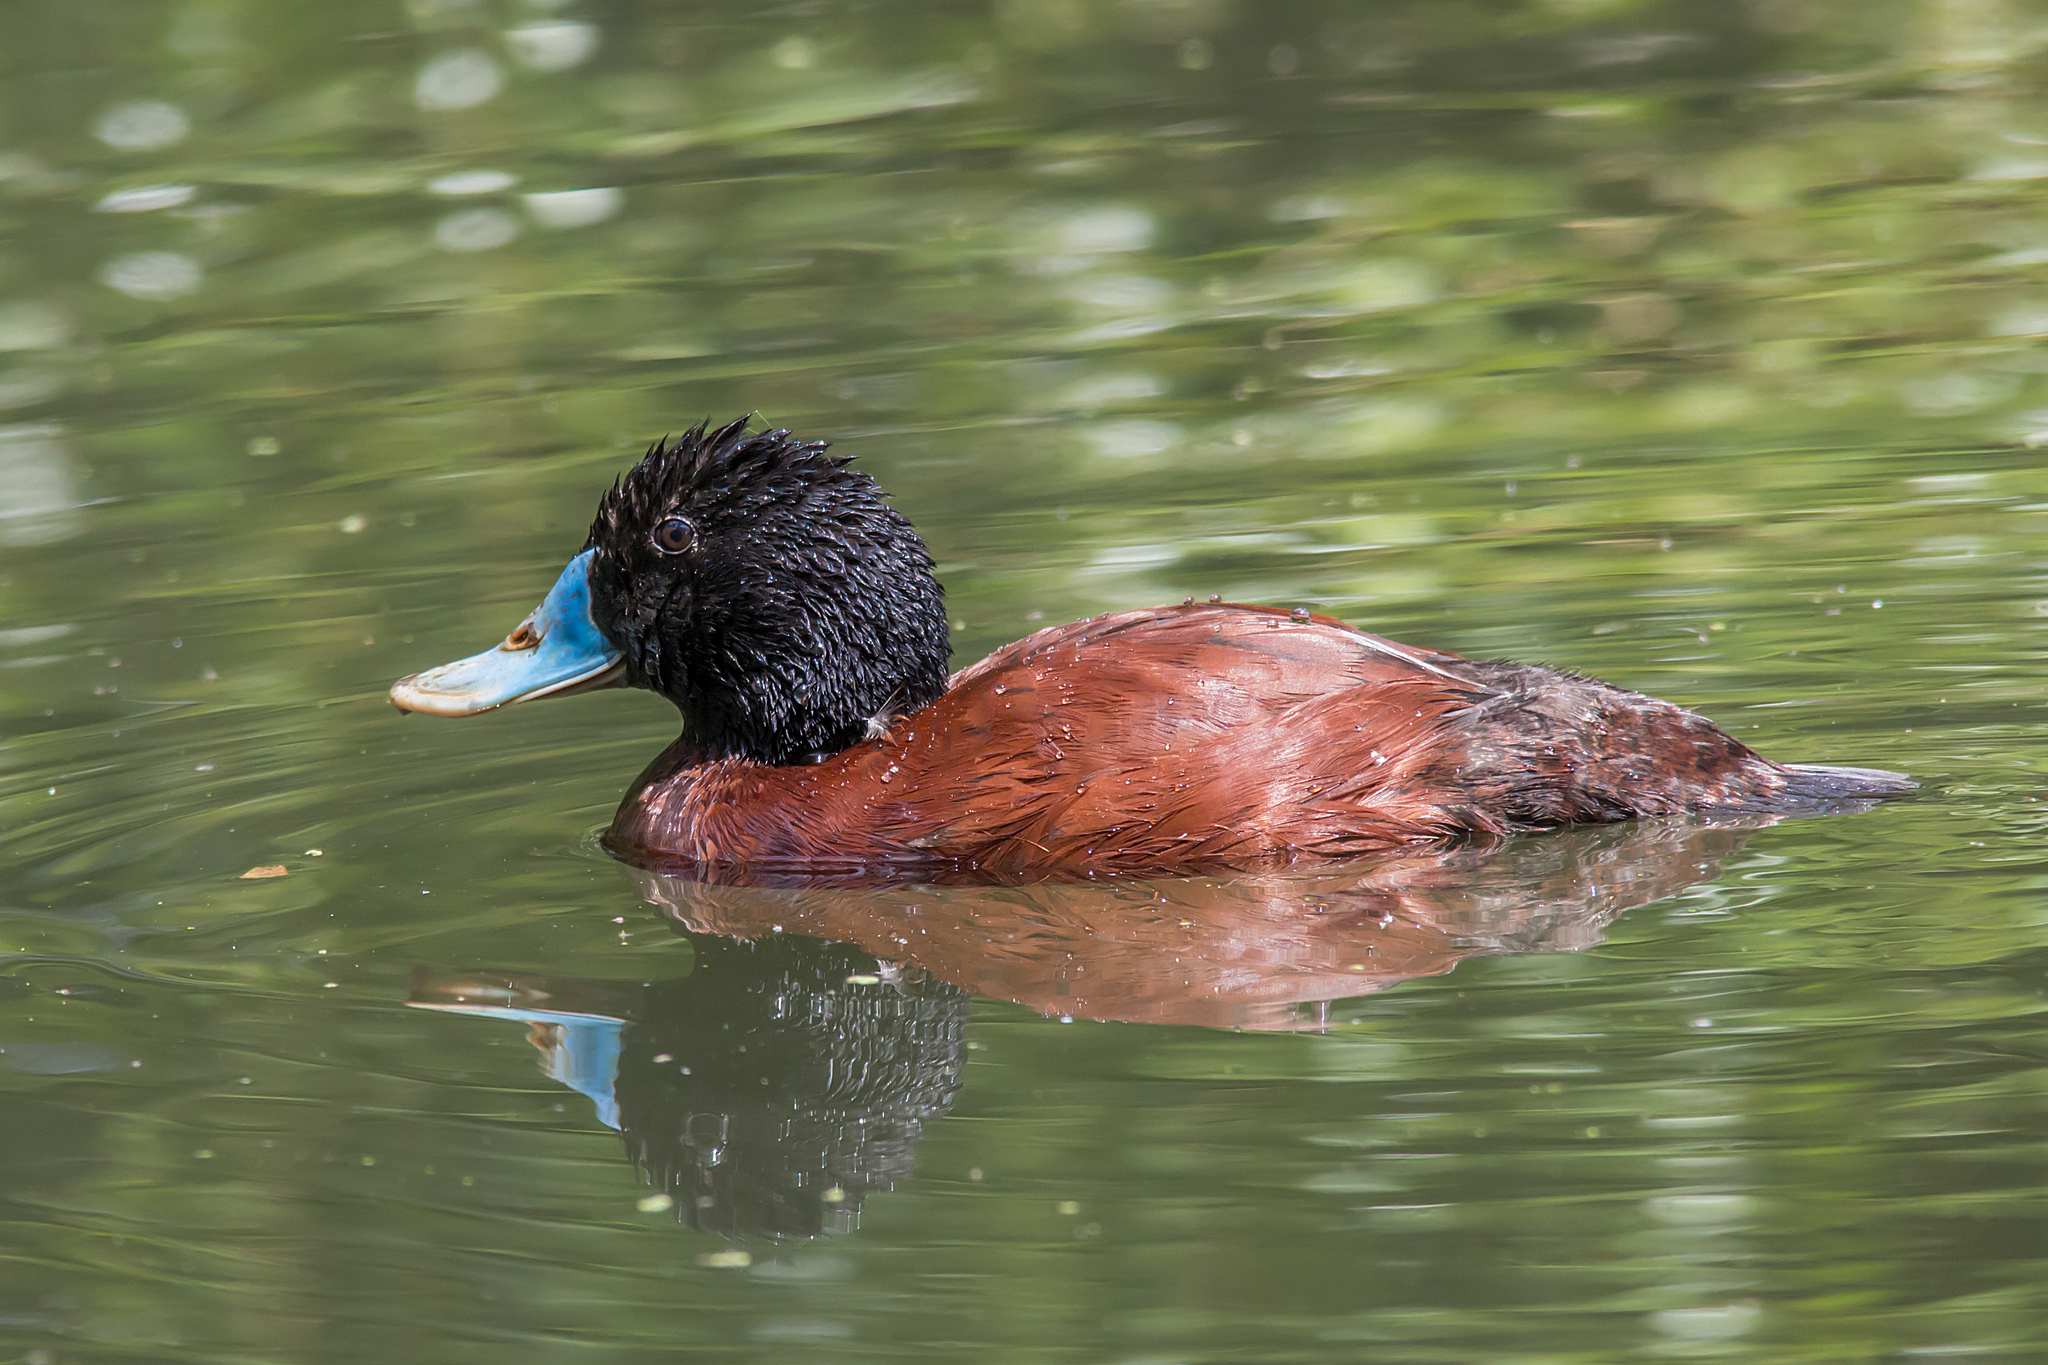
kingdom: Animalia
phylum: Chordata
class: Aves
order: Anseriformes
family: Anatidae
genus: Oxyura
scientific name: Oxyura australis
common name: Blue-billed duck
